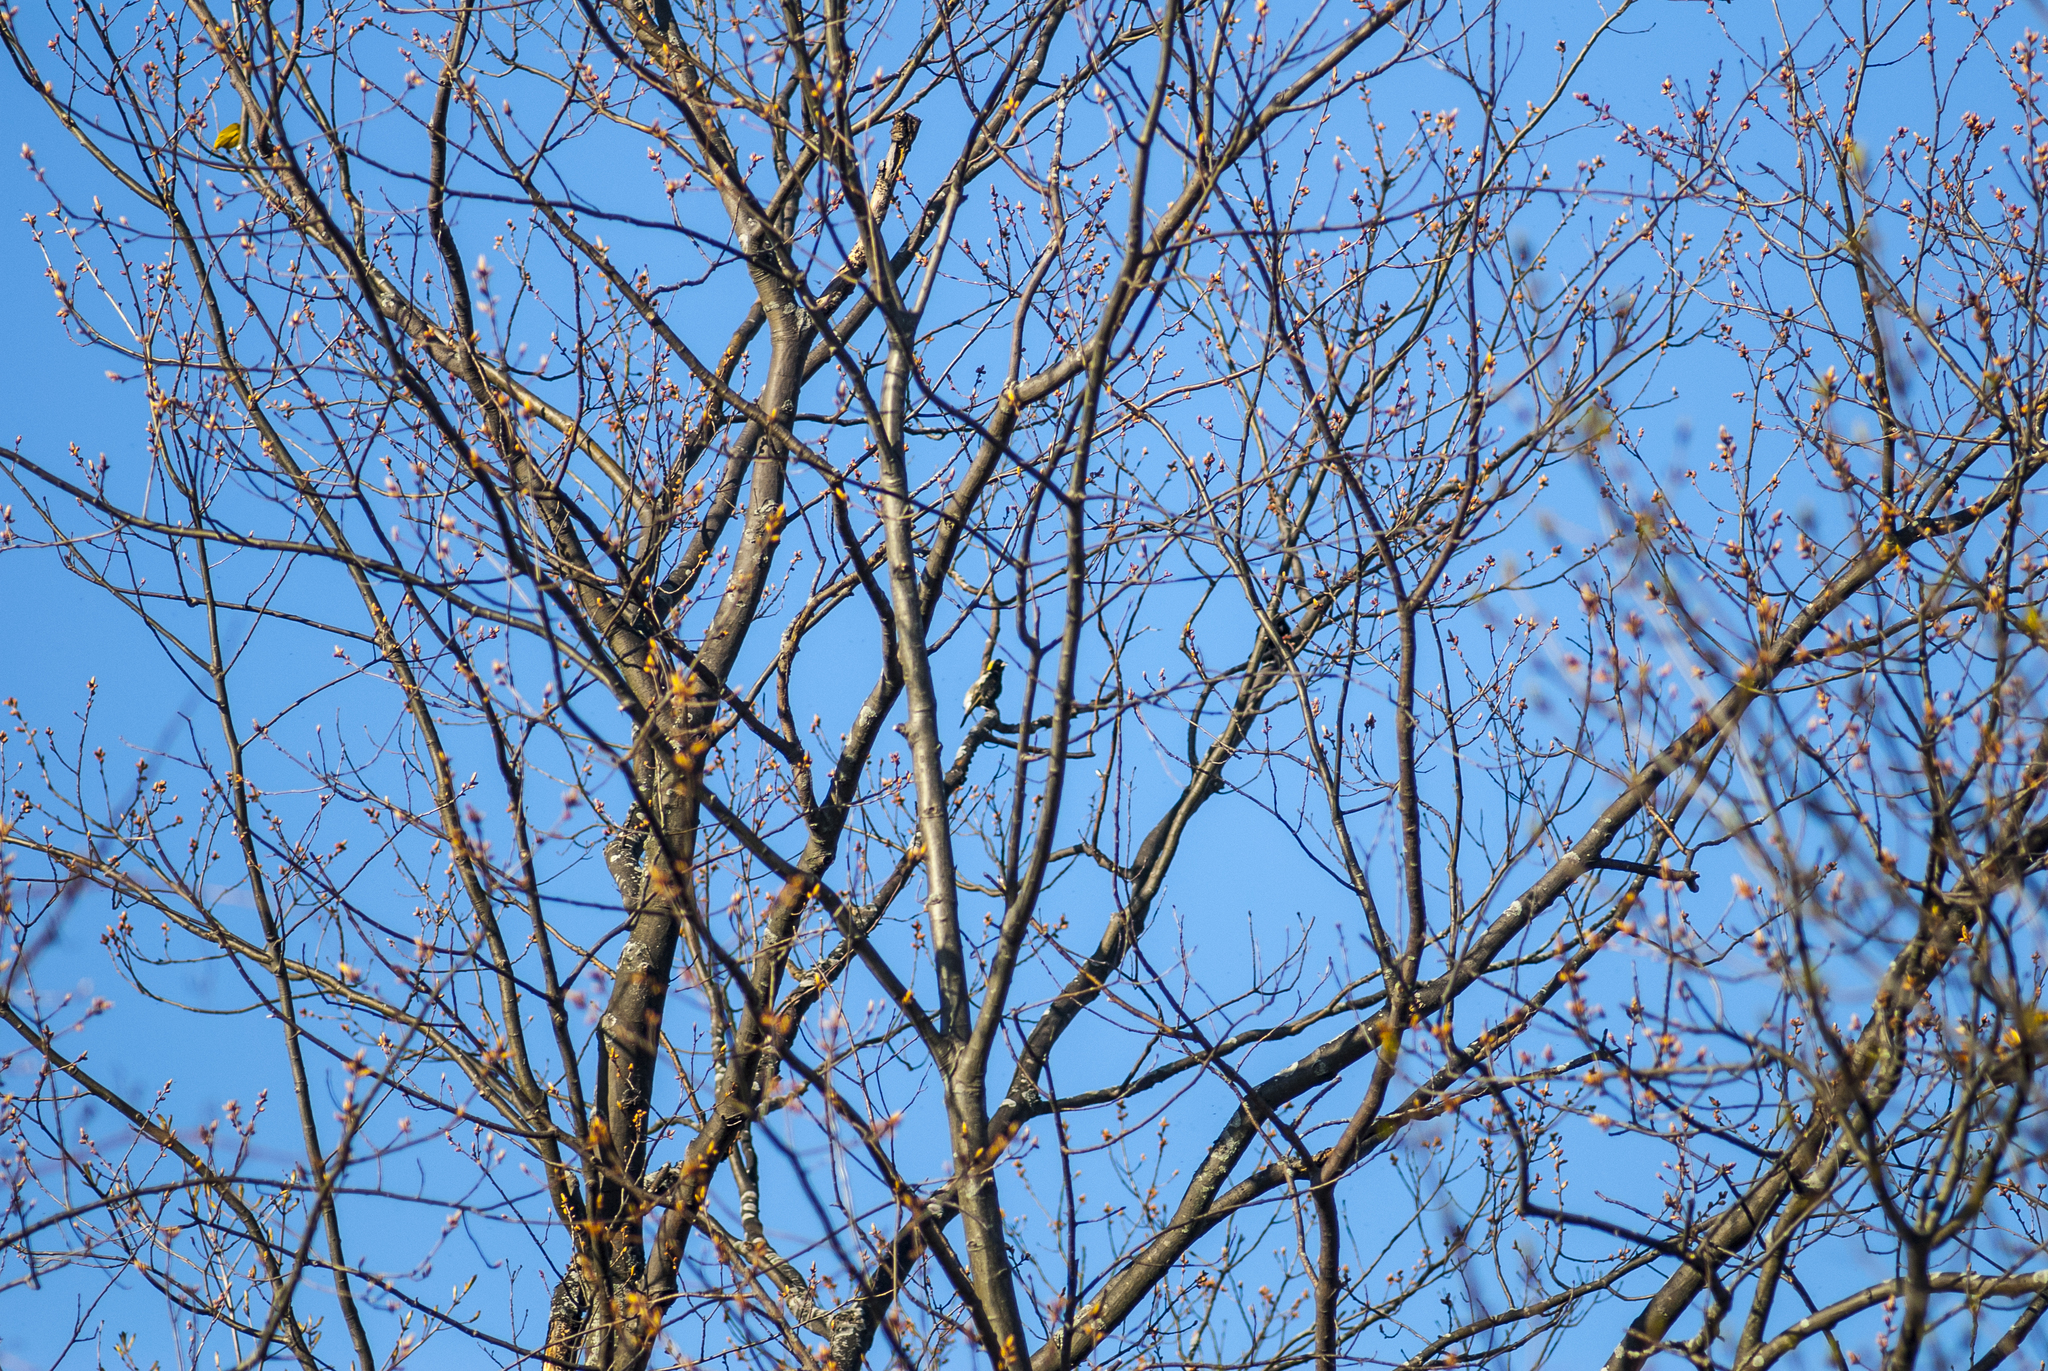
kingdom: Animalia
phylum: Chordata
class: Aves
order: Passeriformes
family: Icteridae
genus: Dolichonyx
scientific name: Dolichonyx oryzivorus
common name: Bobolink
